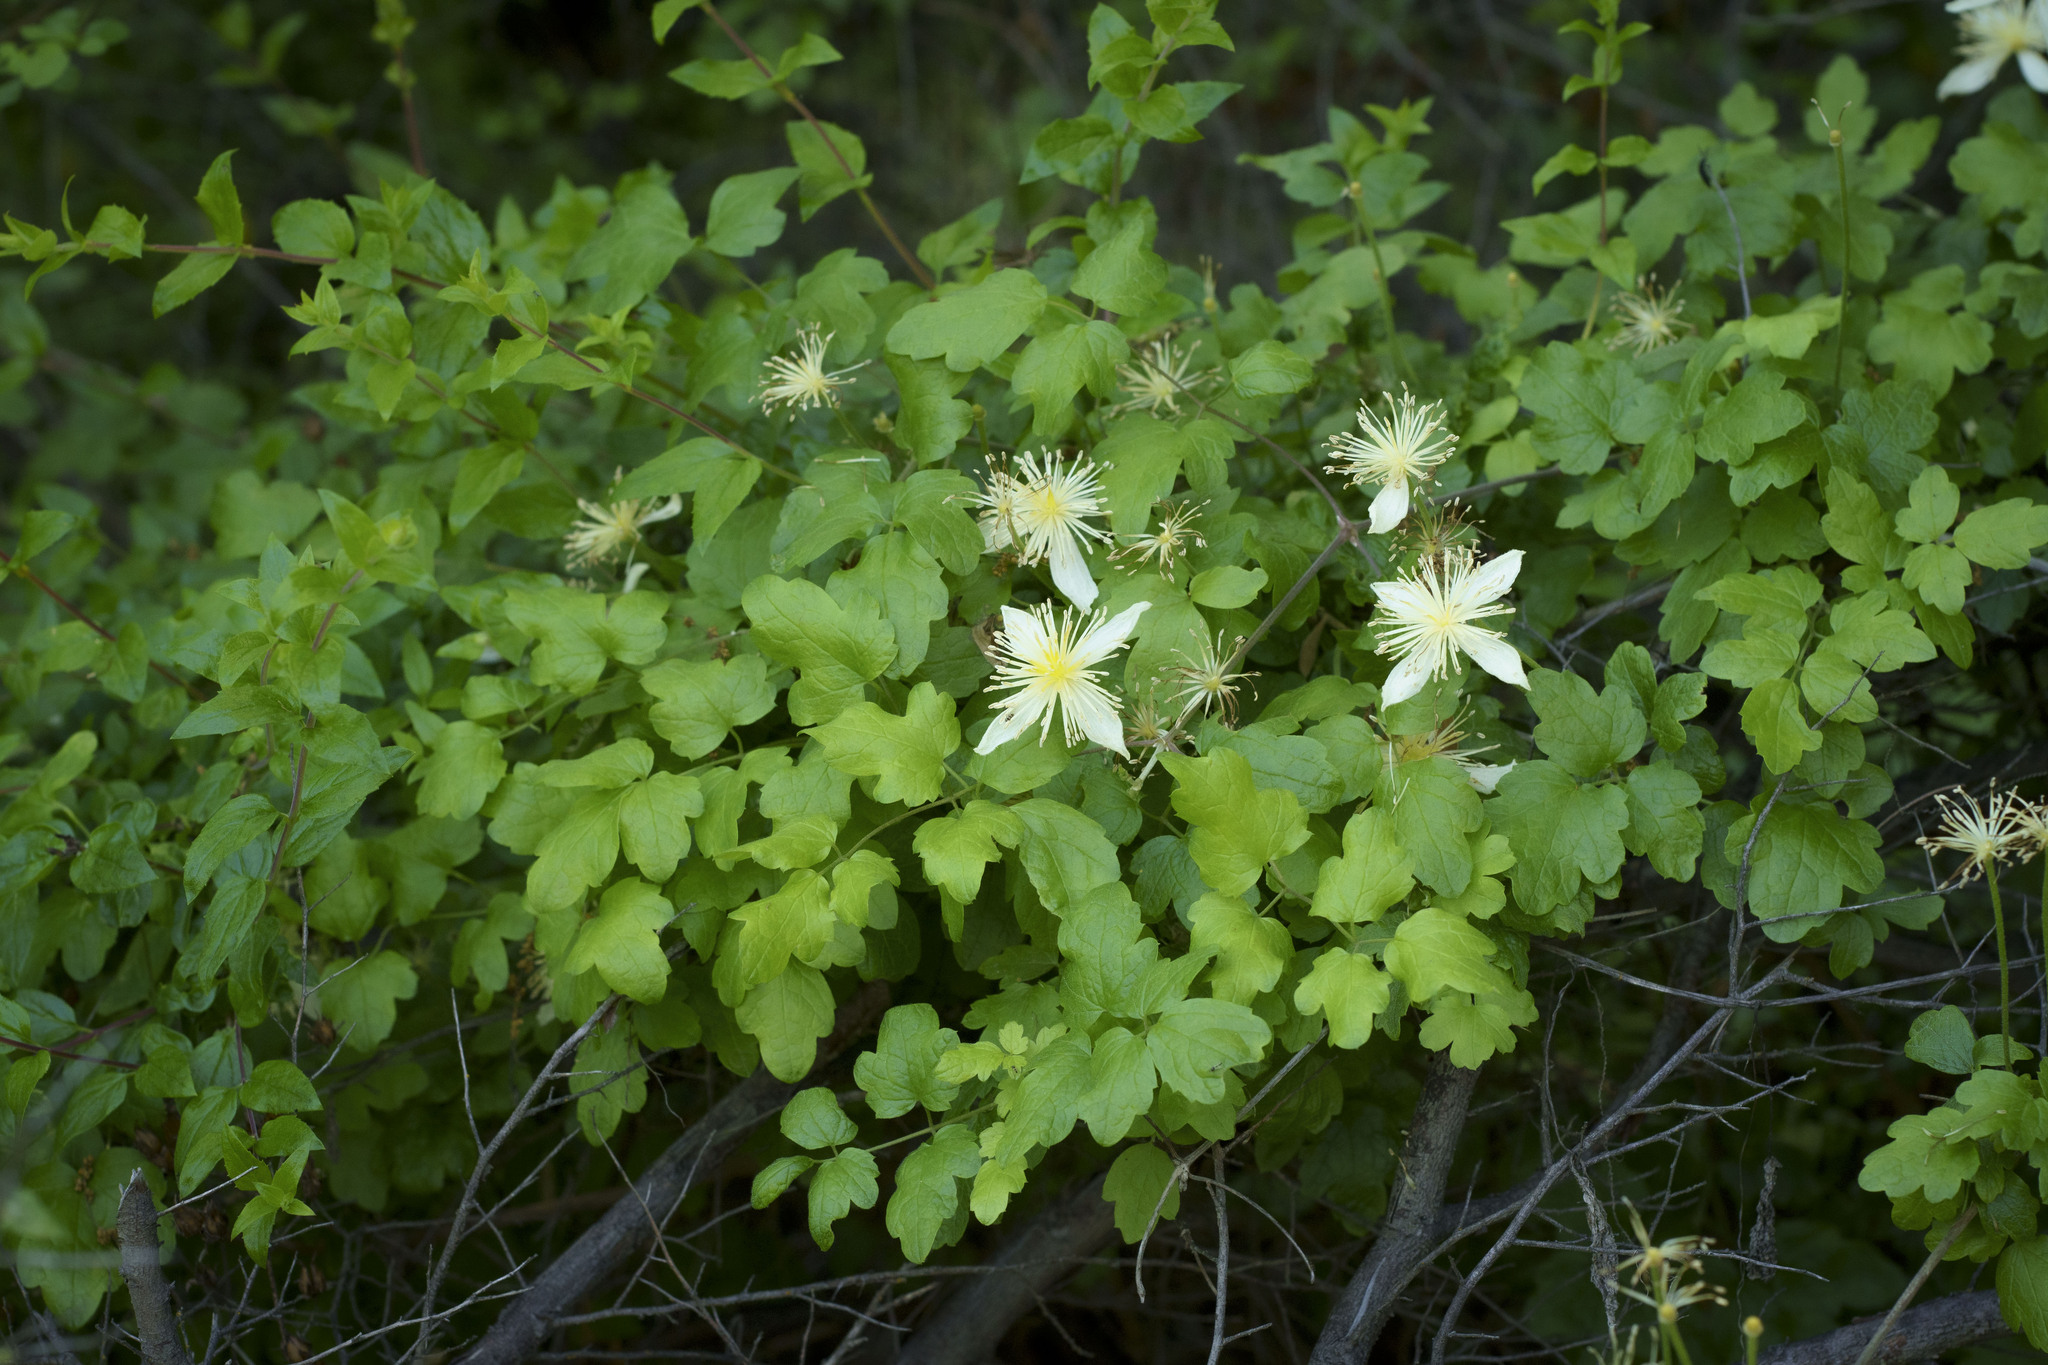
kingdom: Plantae
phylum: Tracheophyta
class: Magnoliopsida
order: Ranunculales
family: Ranunculaceae
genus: Clematis
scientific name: Clematis lasiantha
